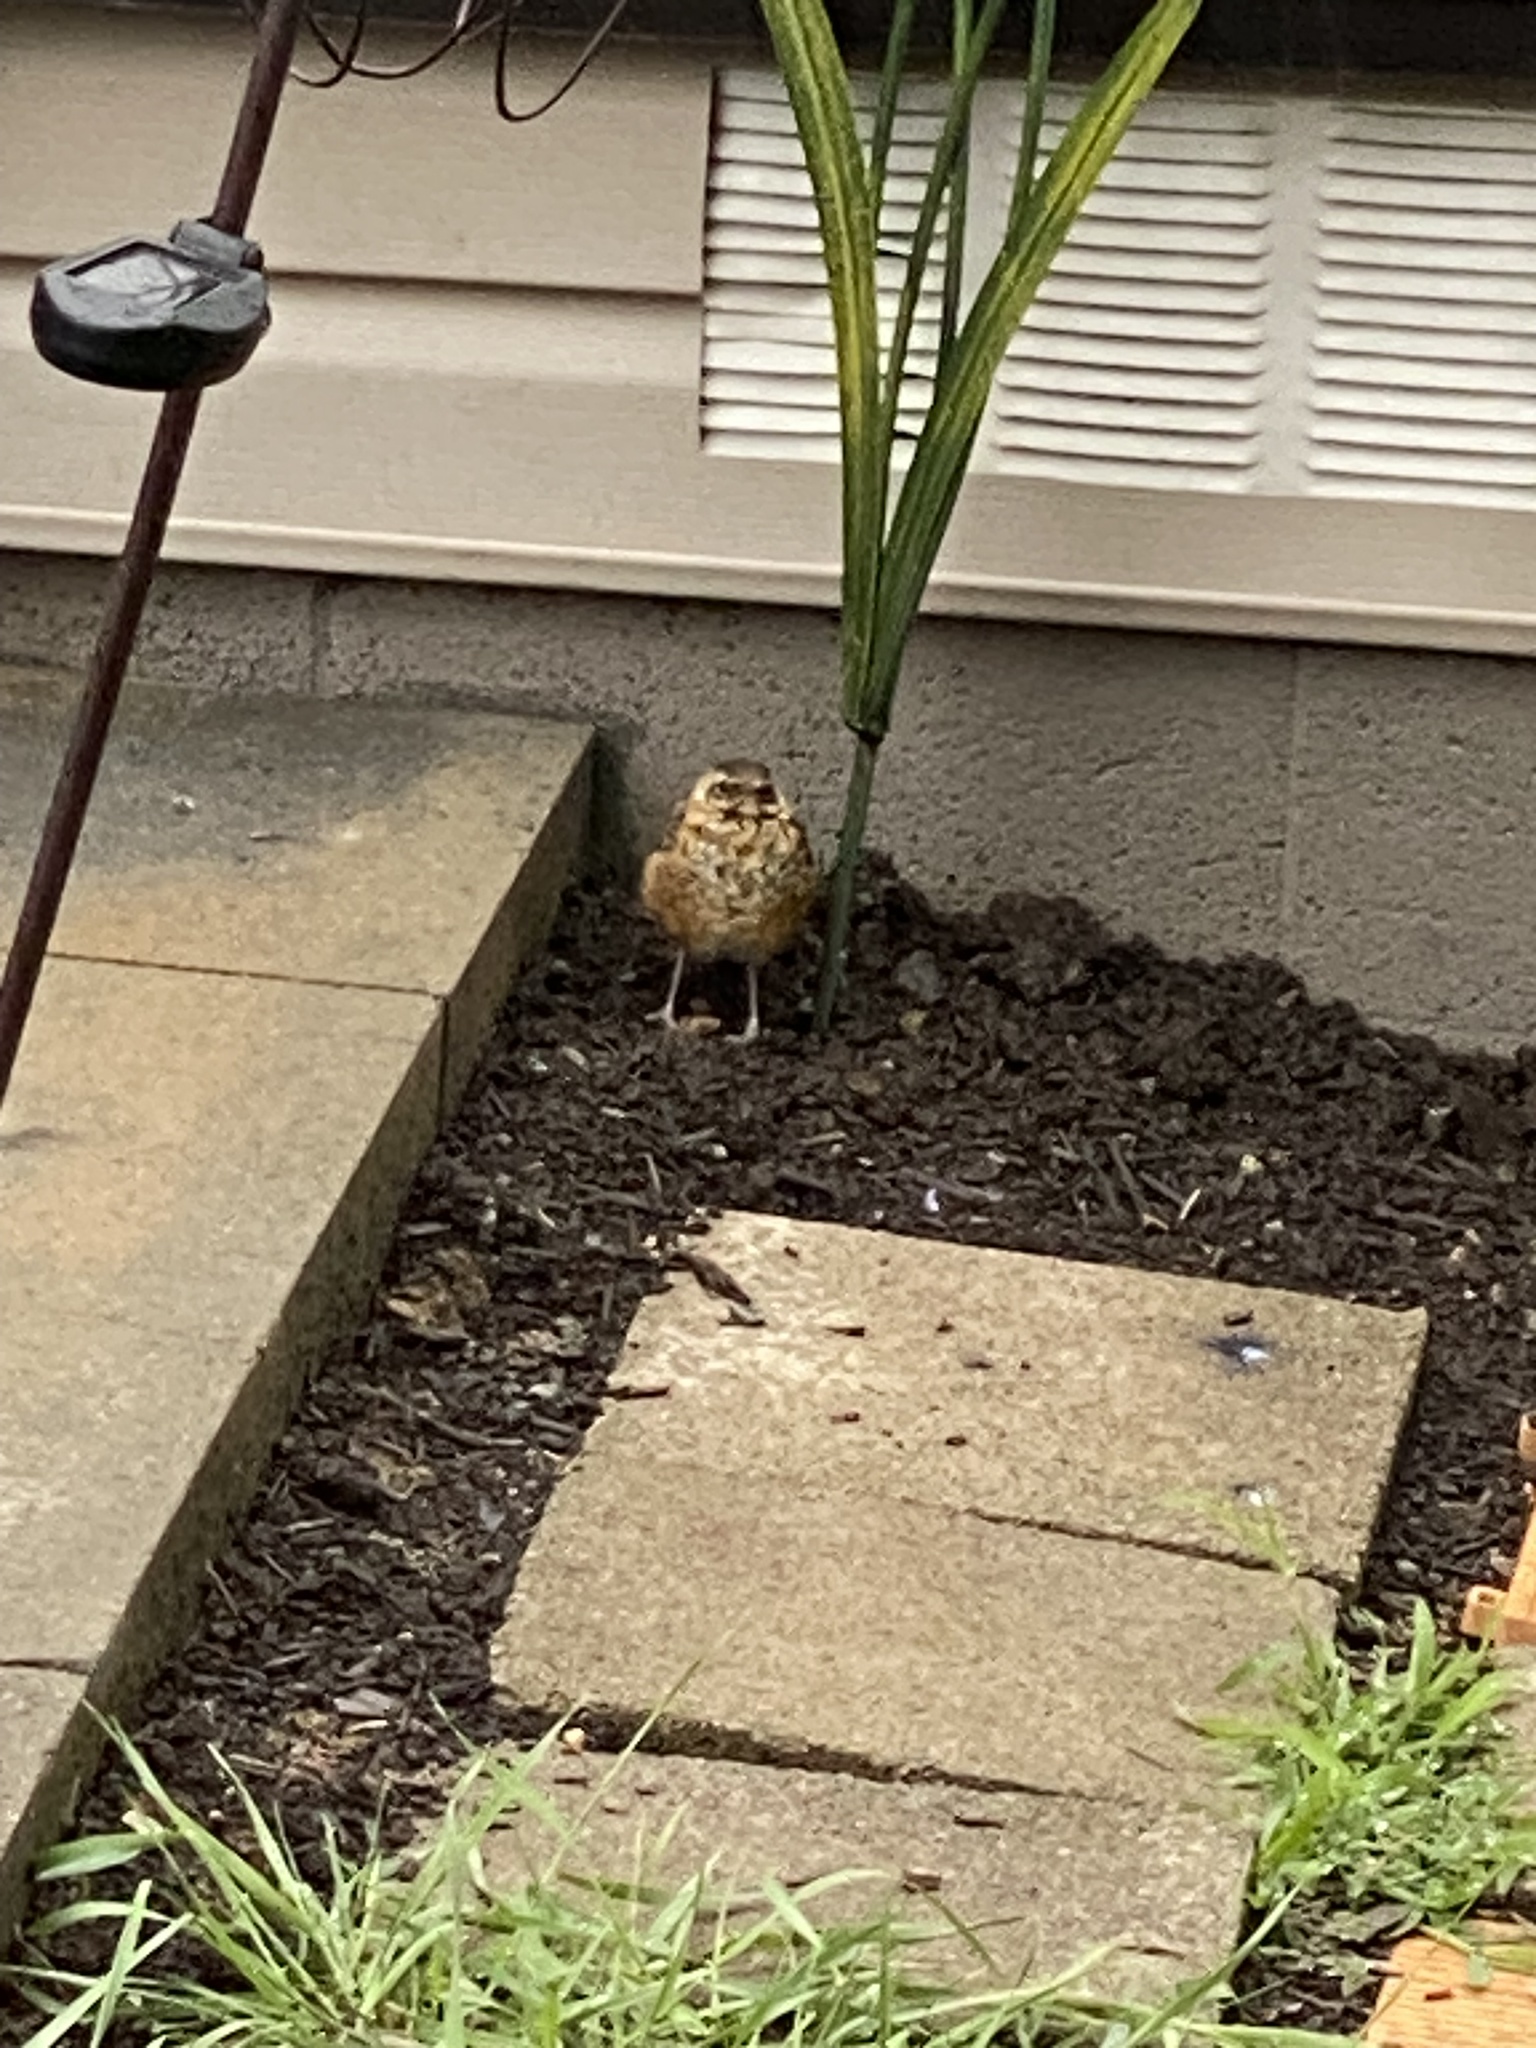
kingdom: Animalia
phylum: Chordata
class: Aves
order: Passeriformes
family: Turdidae
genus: Turdus
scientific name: Turdus migratorius
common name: American robin
